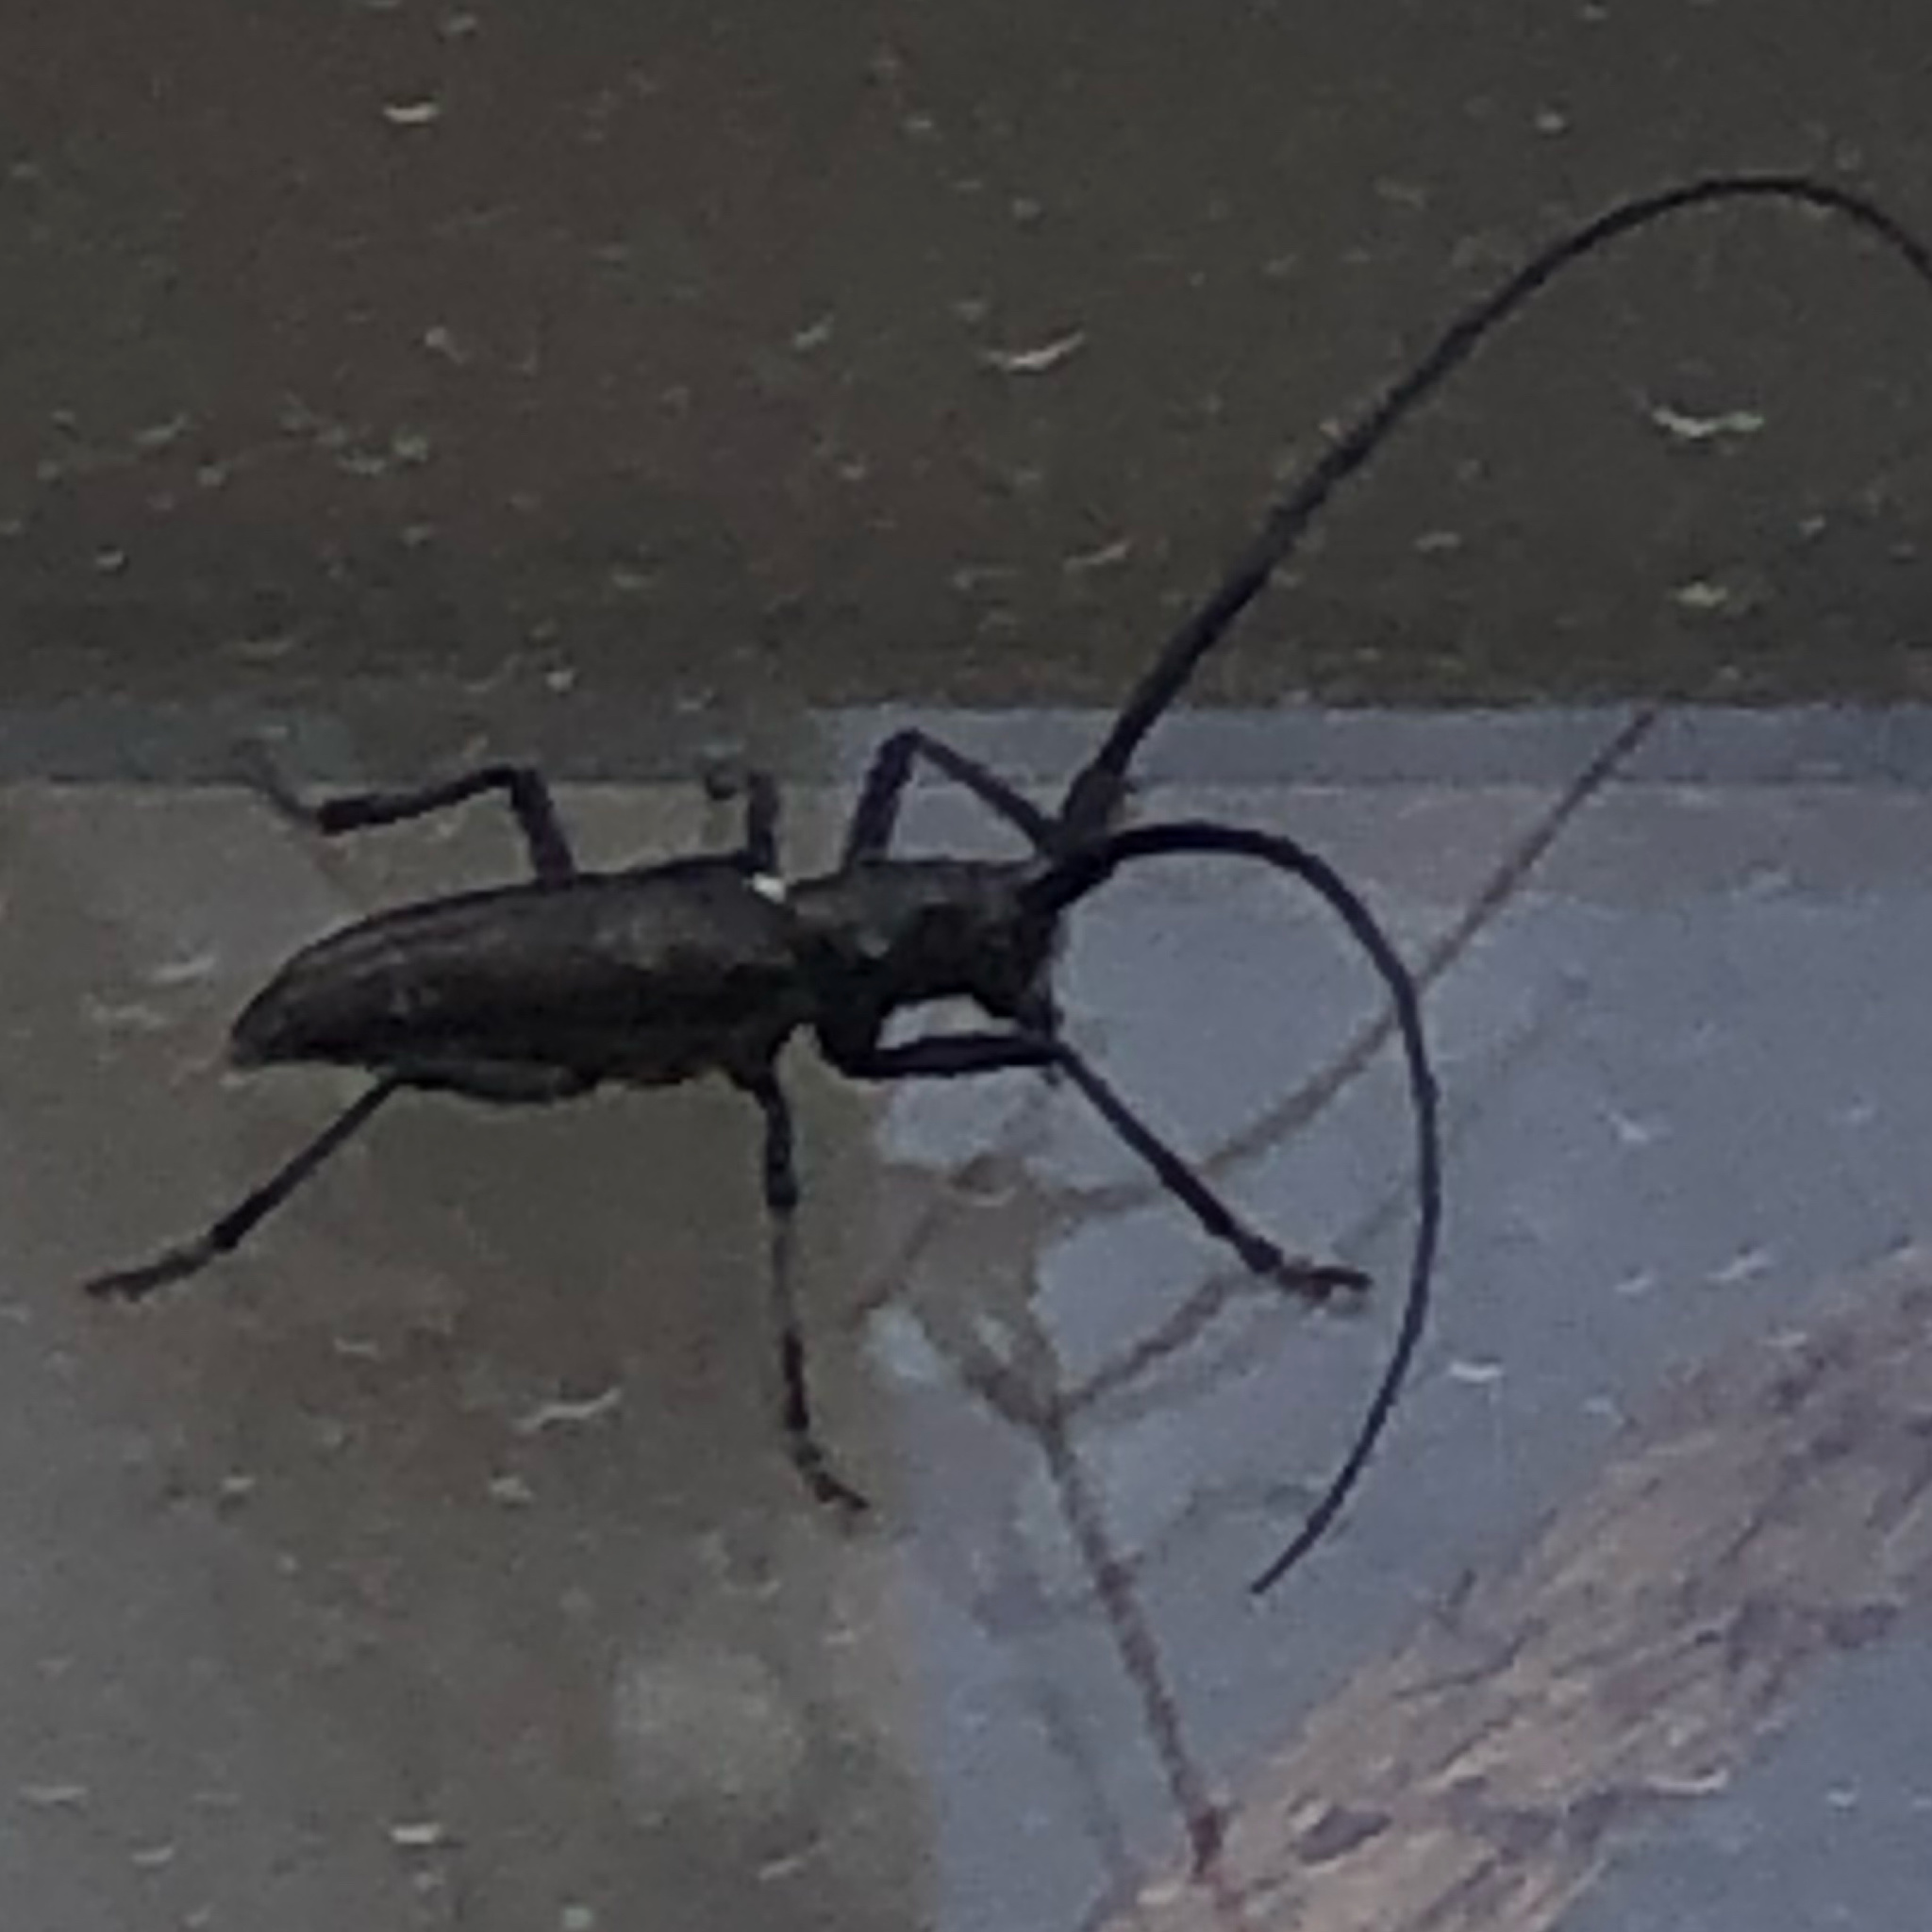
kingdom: Animalia
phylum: Arthropoda
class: Insecta
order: Coleoptera
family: Cerambycidae
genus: Monochamus
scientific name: Monochamus scutellatus
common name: White-spotted sawyer beetle
